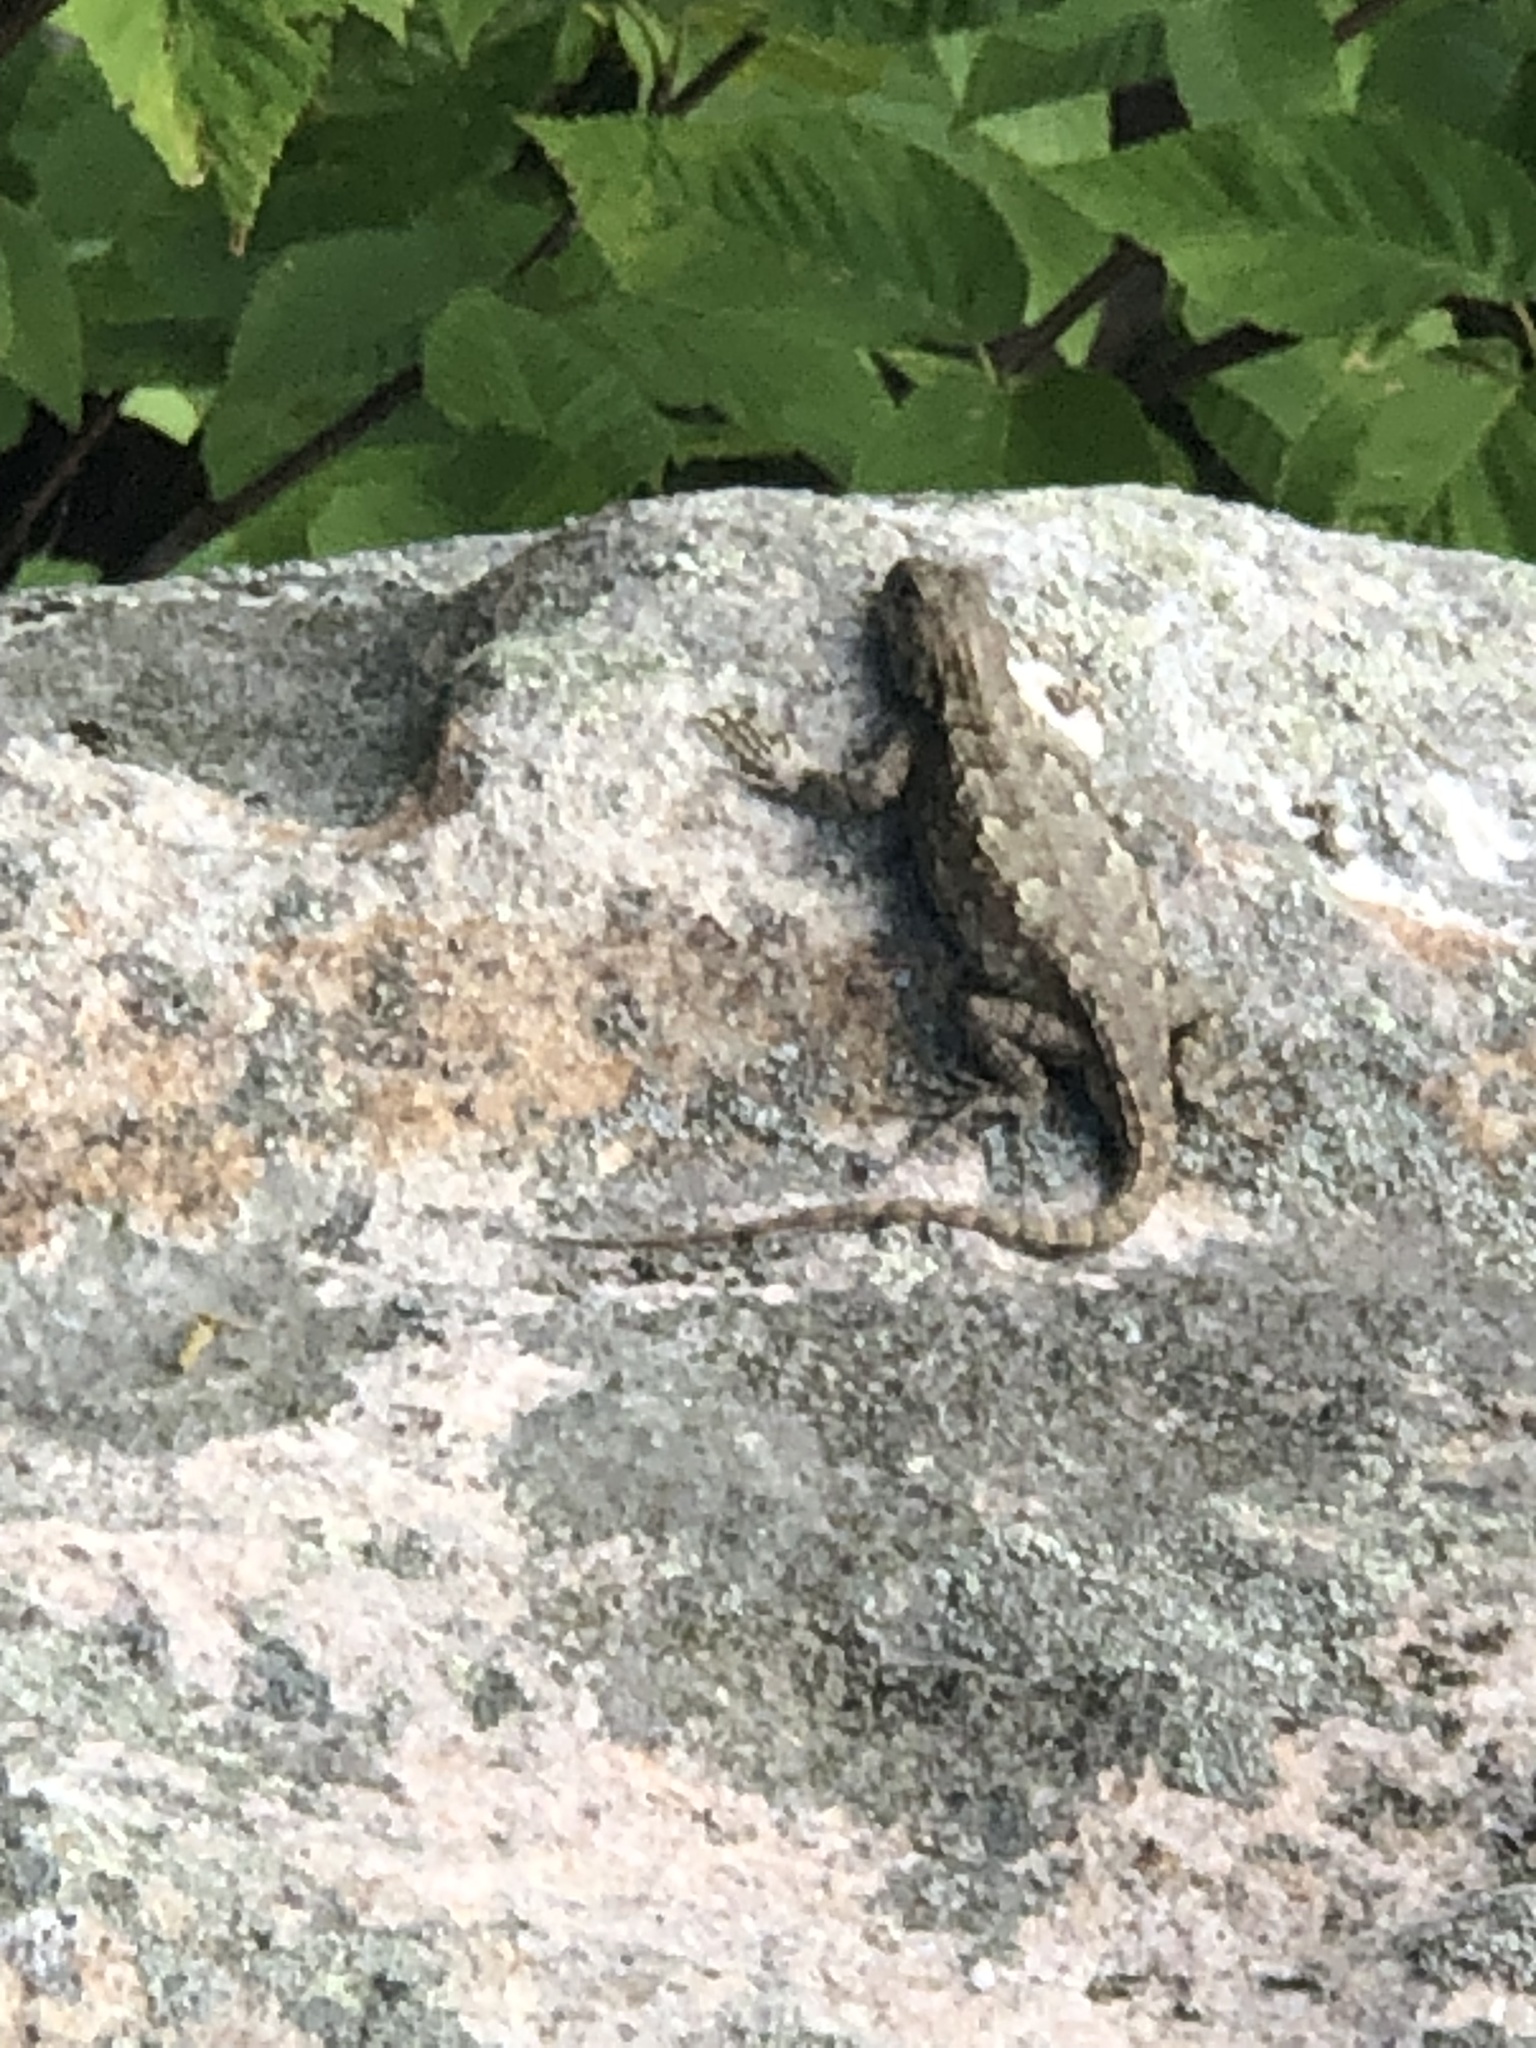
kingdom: Animalia
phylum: Chordata
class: Squamata
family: Phrynosomatidae
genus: Sceloporus
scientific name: Sceloporus undulatus
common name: Eastern fence lizard
